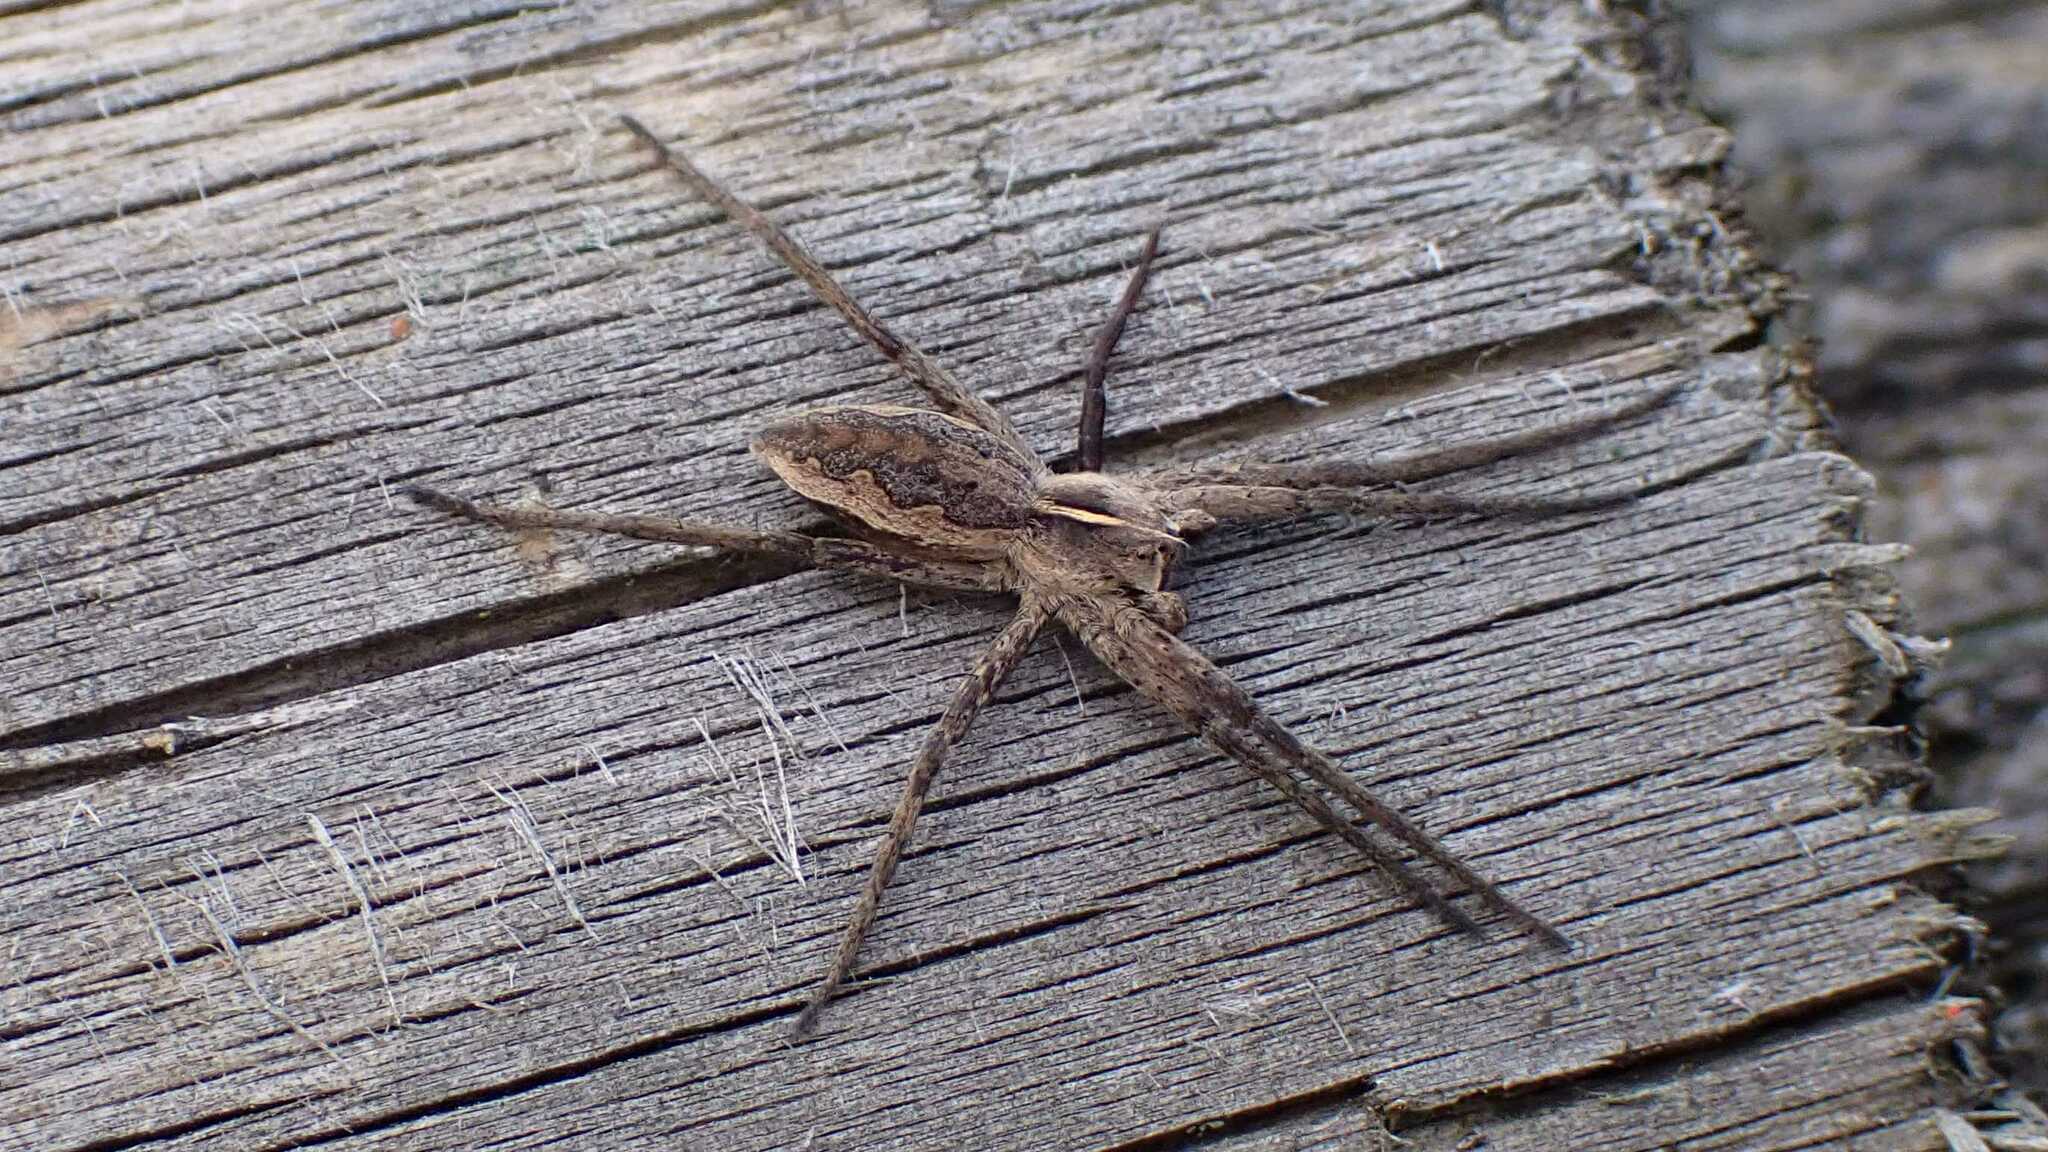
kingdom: Animalia
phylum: Arthropoda
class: Arachnida
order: Araneae
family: Pisauridae
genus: Pisaura
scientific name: Pisaura mirabilis
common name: Tent spider
